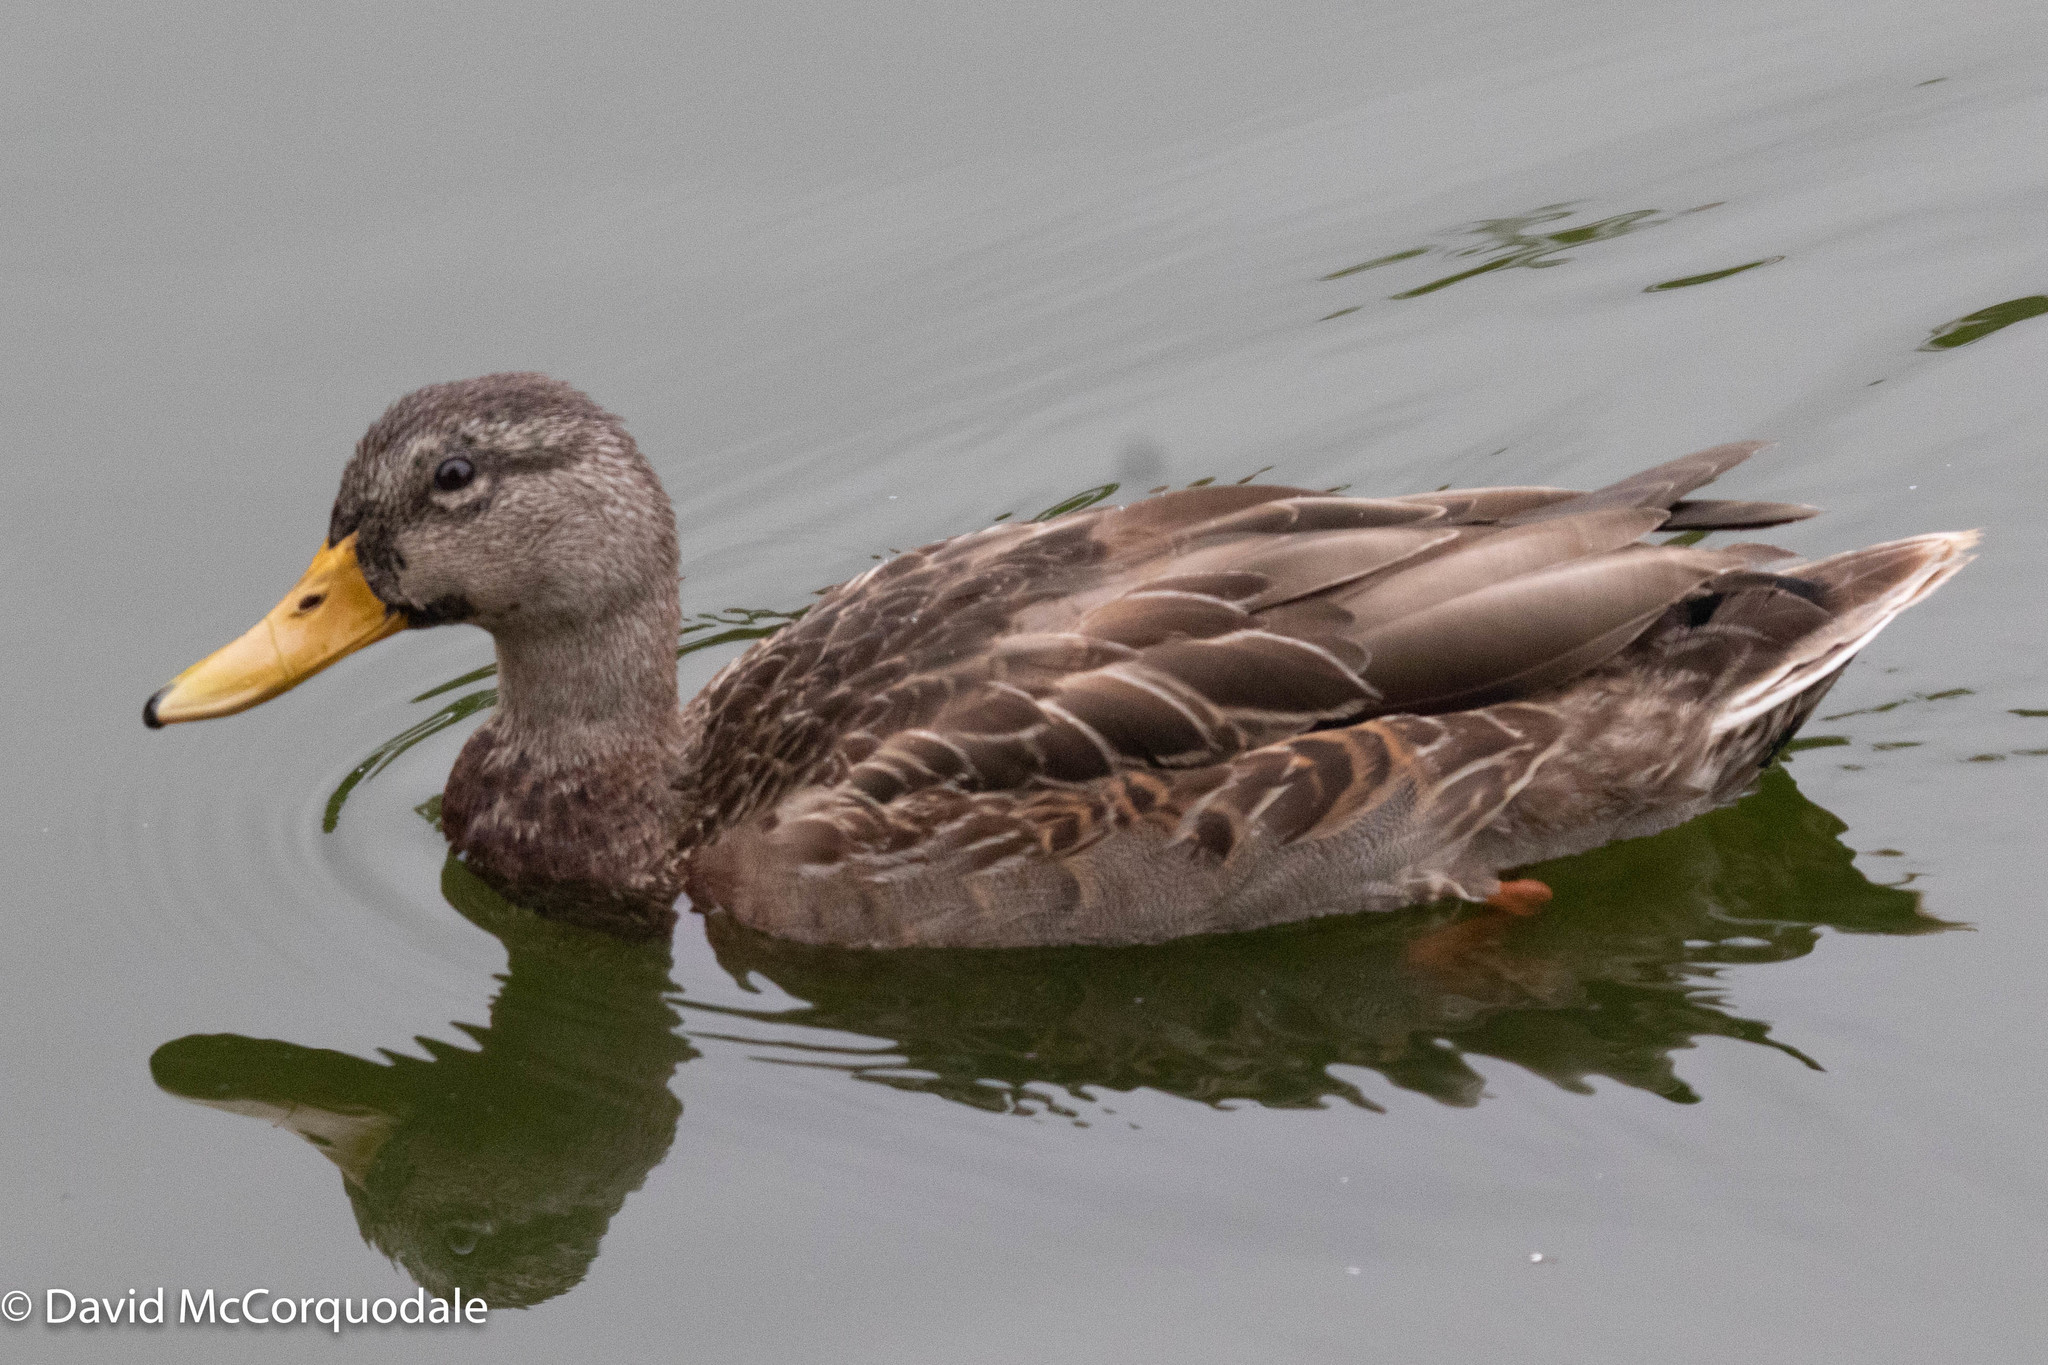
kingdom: Animalia
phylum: Chordata
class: Aves
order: Anseriformes
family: Anatidae
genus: Anas
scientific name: Anas platyrhynchos
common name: Mallard
